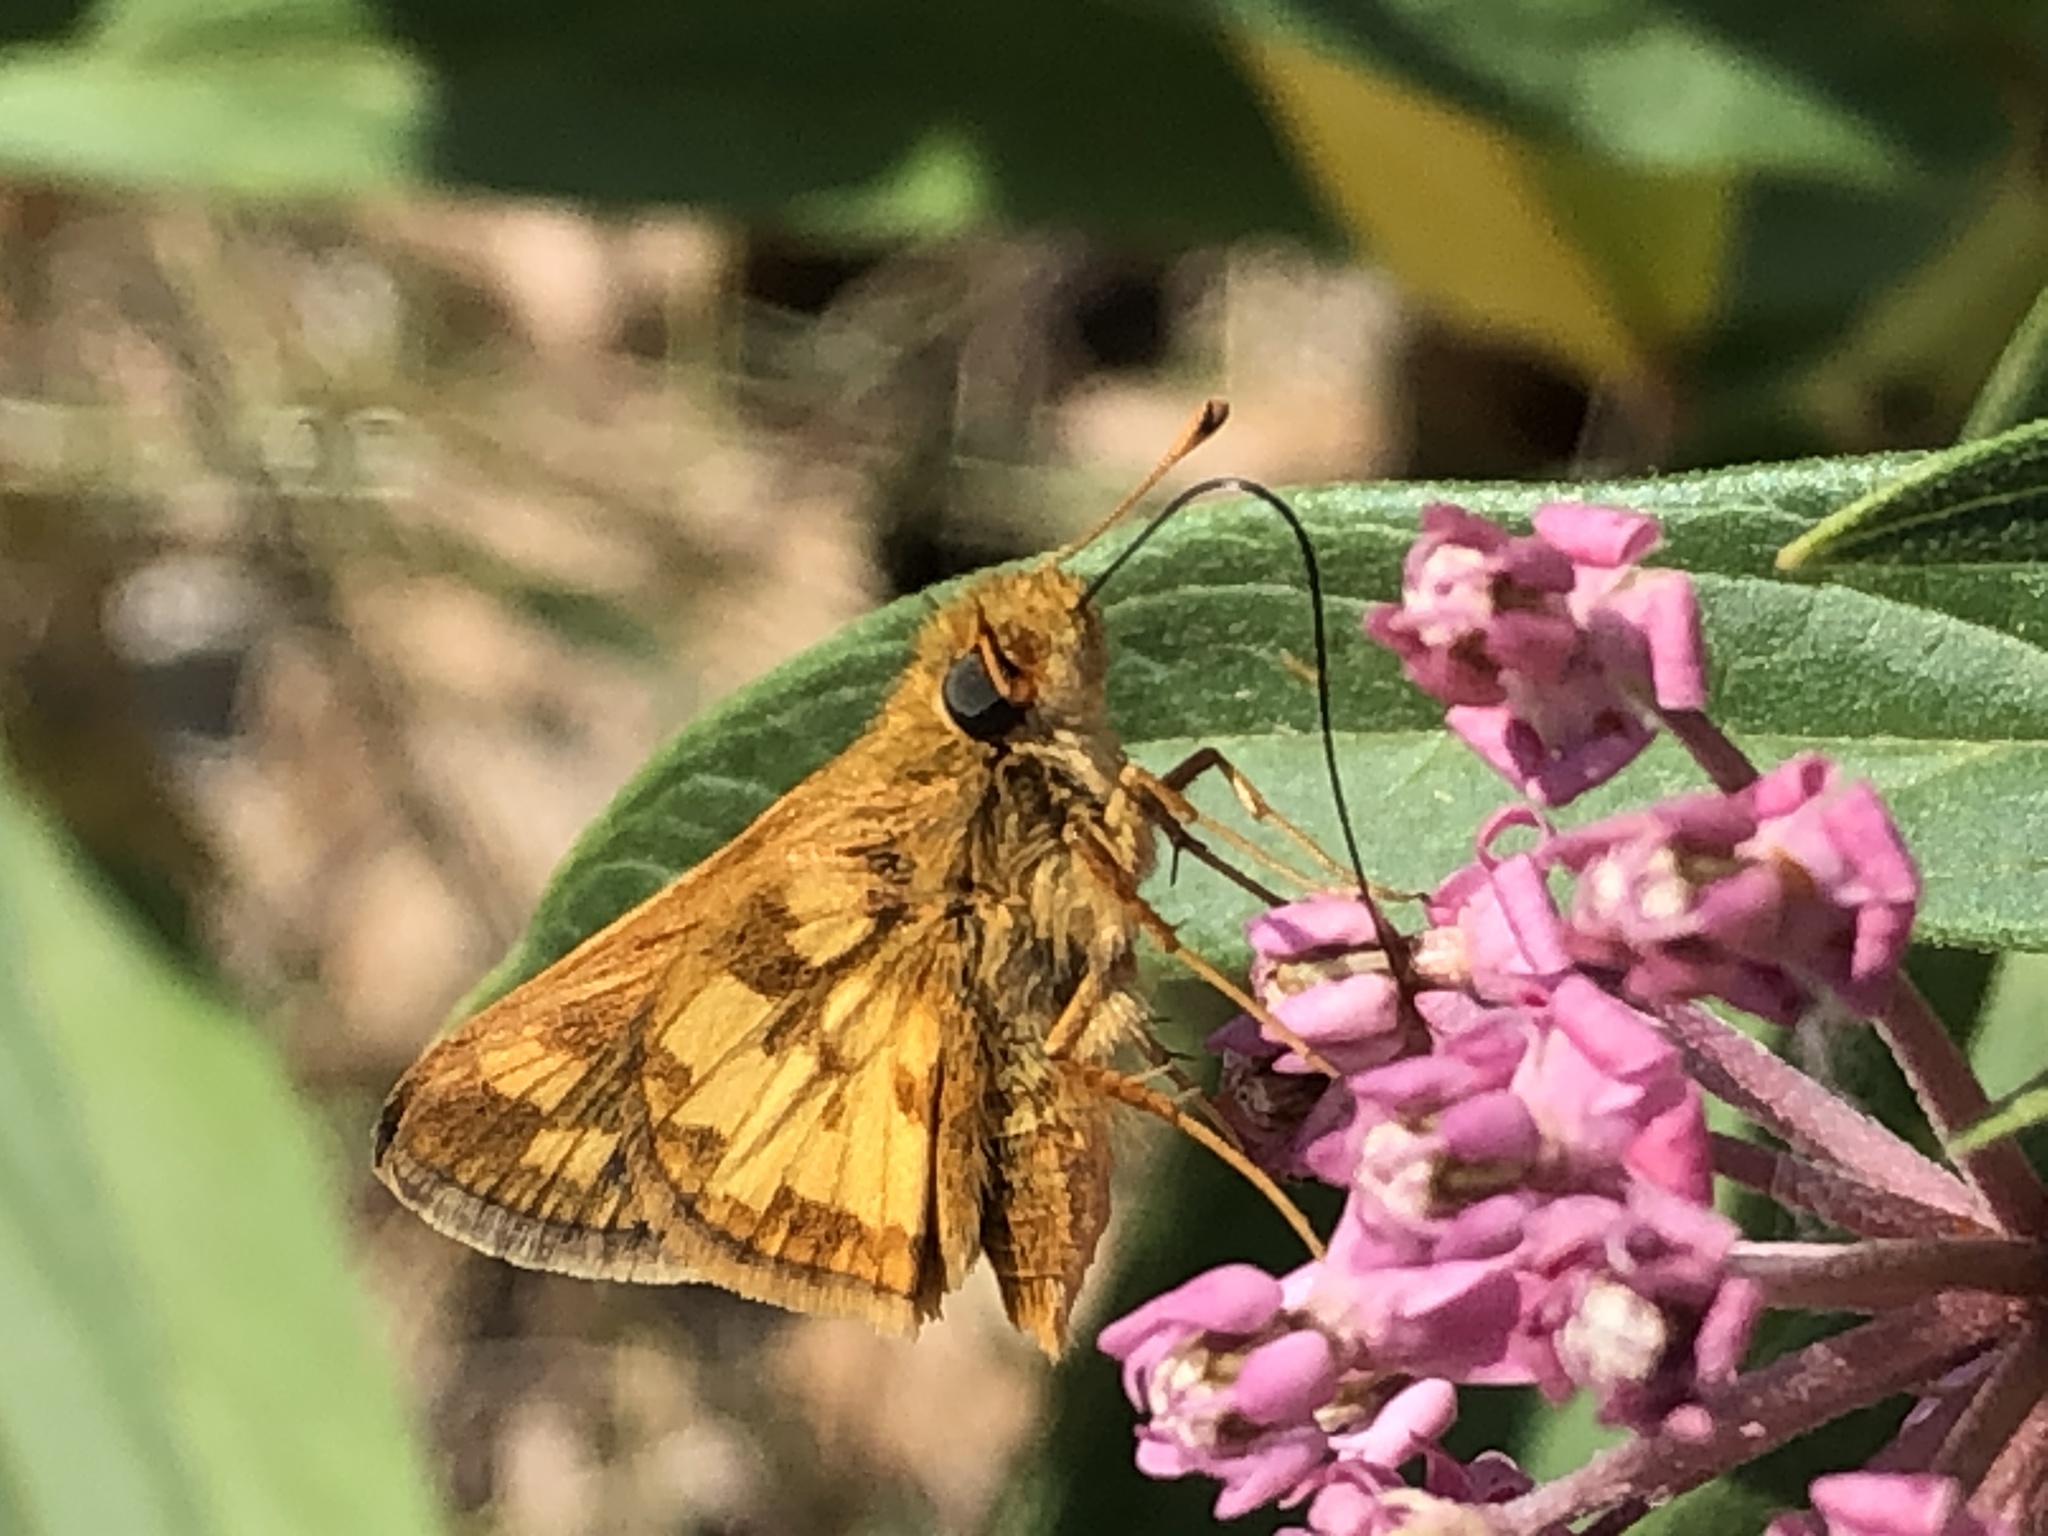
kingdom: Animalia
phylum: Arthropoda
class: Insecta
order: Lepidoptera
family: Hesperiidae
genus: Polites
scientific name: Polites coras
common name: Peck's skipper
